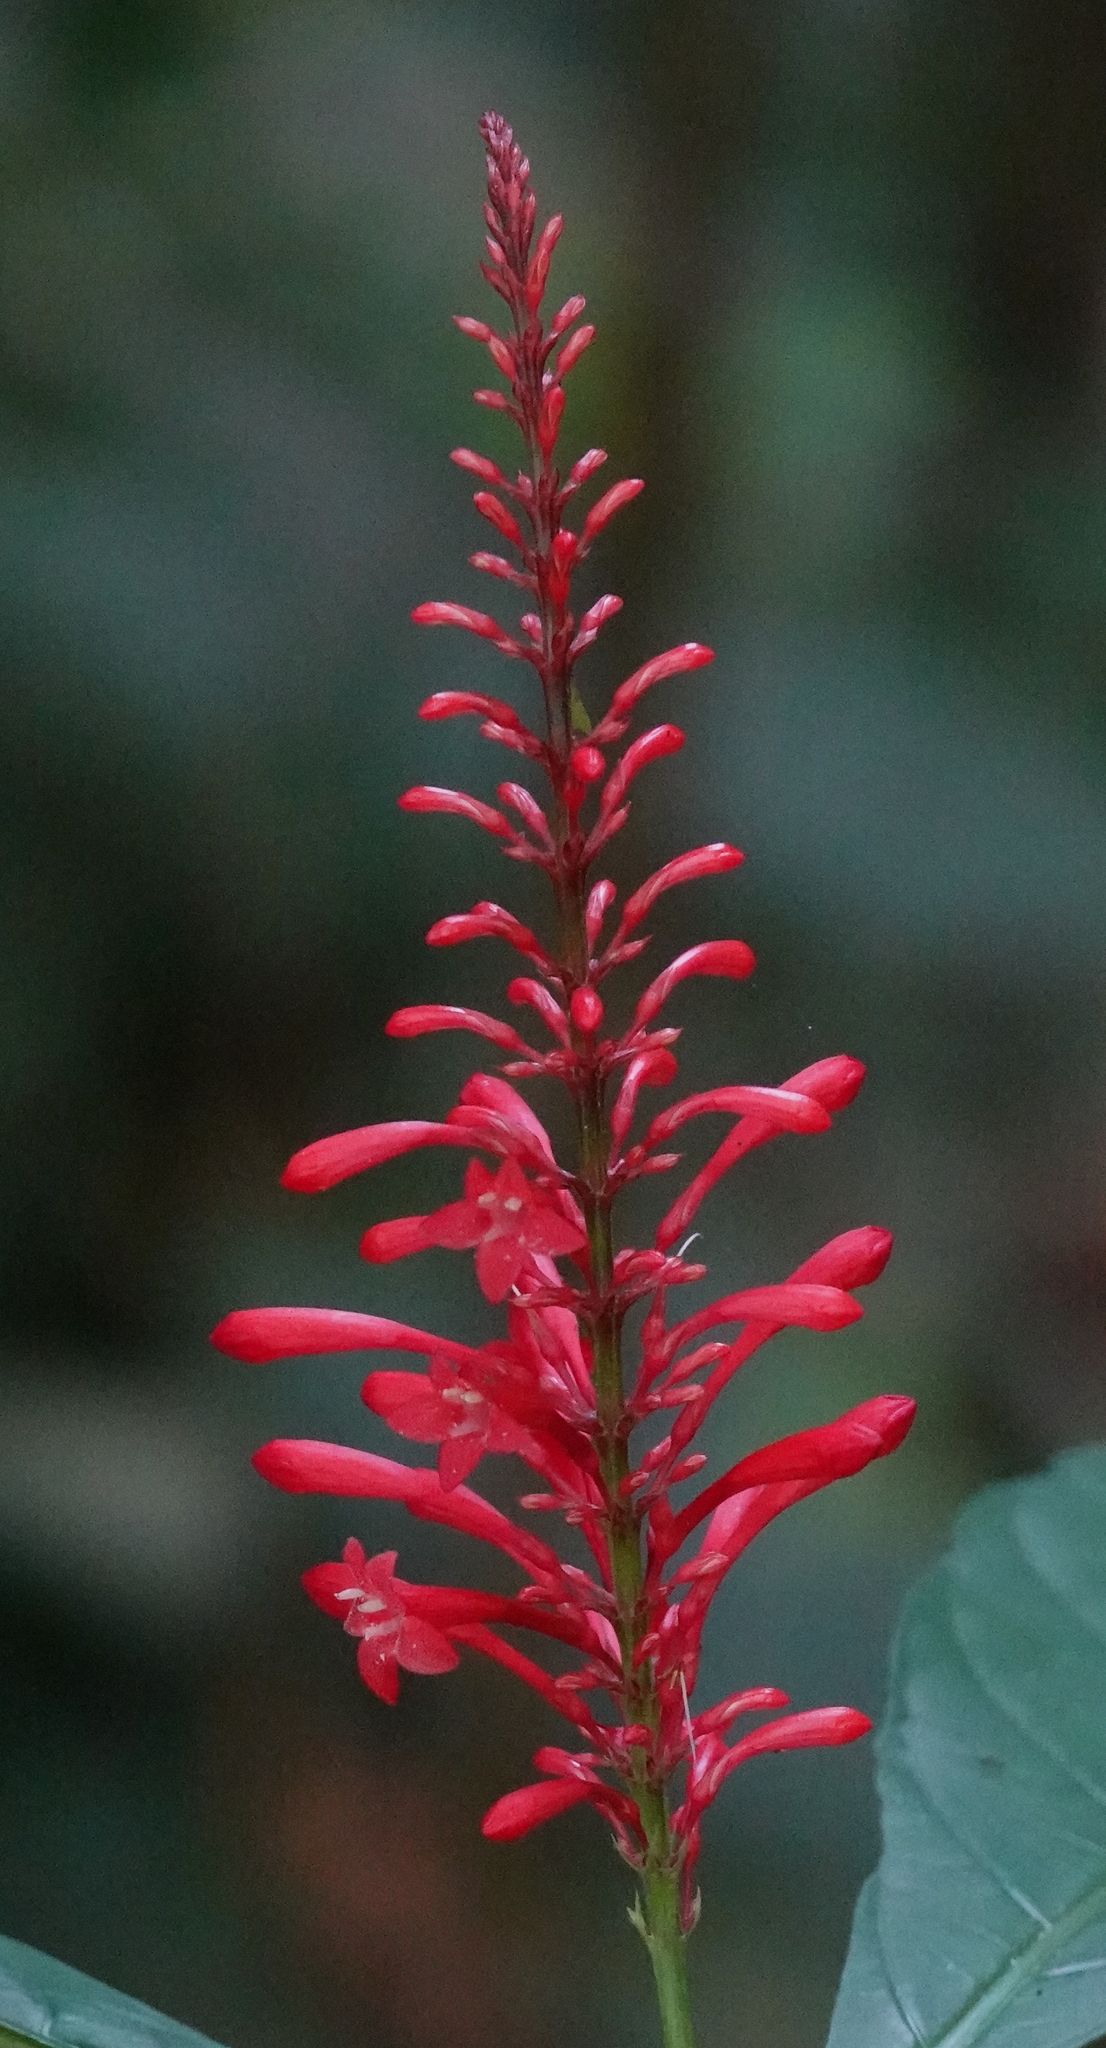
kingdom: Plantae
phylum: Tracheophyta
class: Magnoliopsida
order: Lamiales
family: Acanthaceae
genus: Odontonema
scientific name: Odontonema tubaeforme
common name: Firespike
